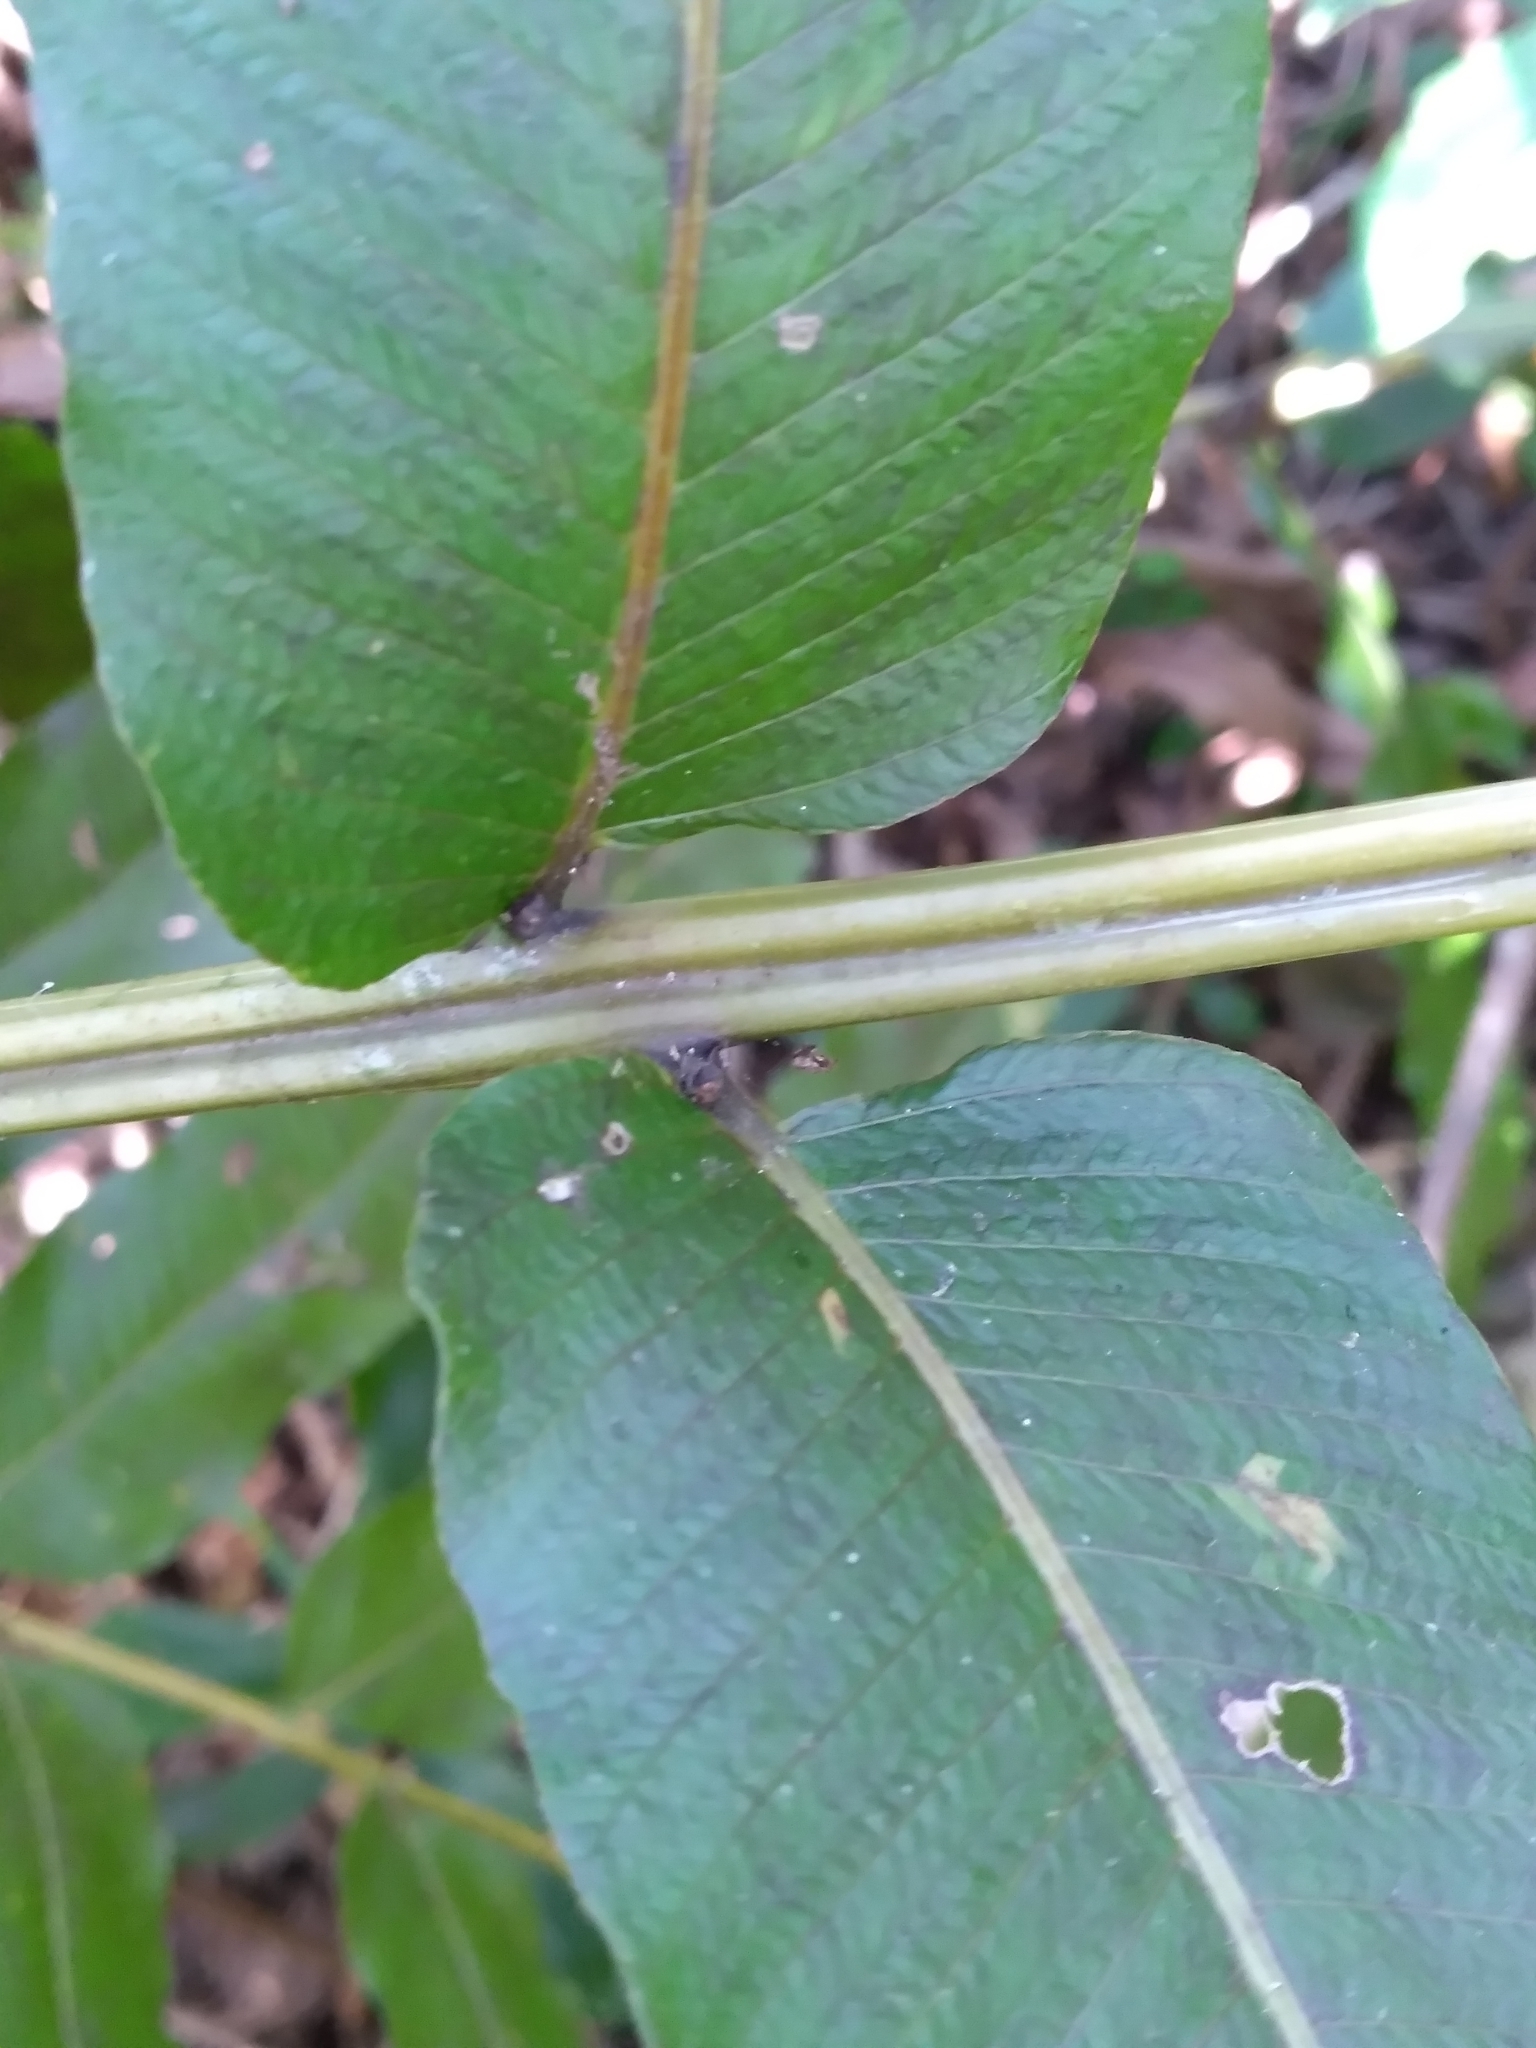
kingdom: Plantae
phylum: Tracheophyta
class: Polypodiopsida
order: Polypodiales
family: Thelypteridaceae
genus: Meniscium
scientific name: Meniscium reticulatum
